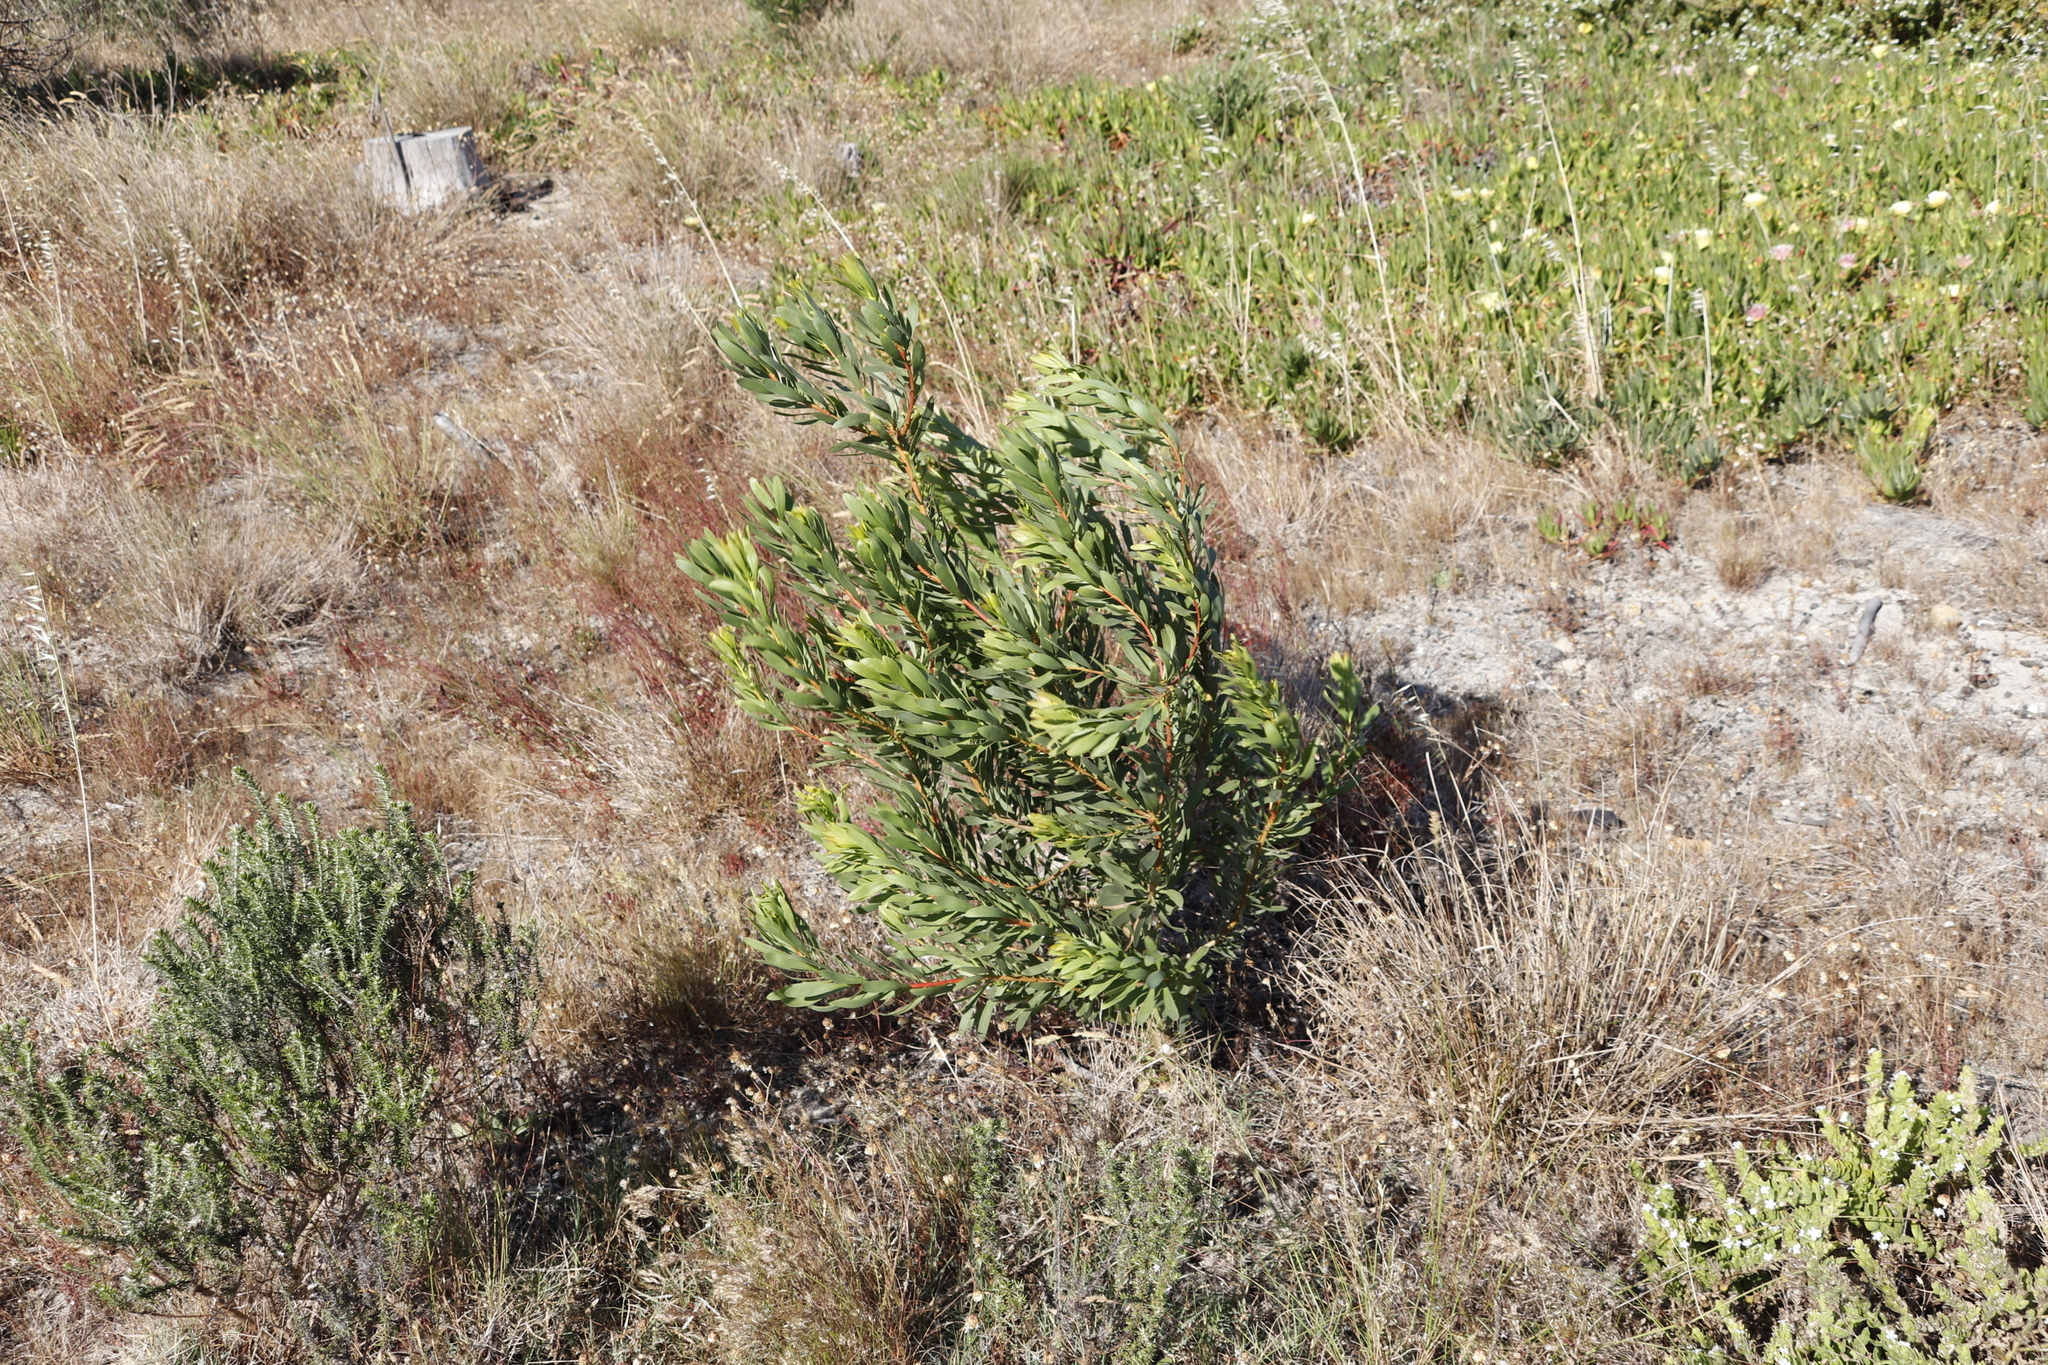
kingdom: Plantae
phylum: Tracheophyta
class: Magnoliopsida
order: Proteales
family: Proteaceae
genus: Protea
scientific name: Protea repens
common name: Sugarbush
